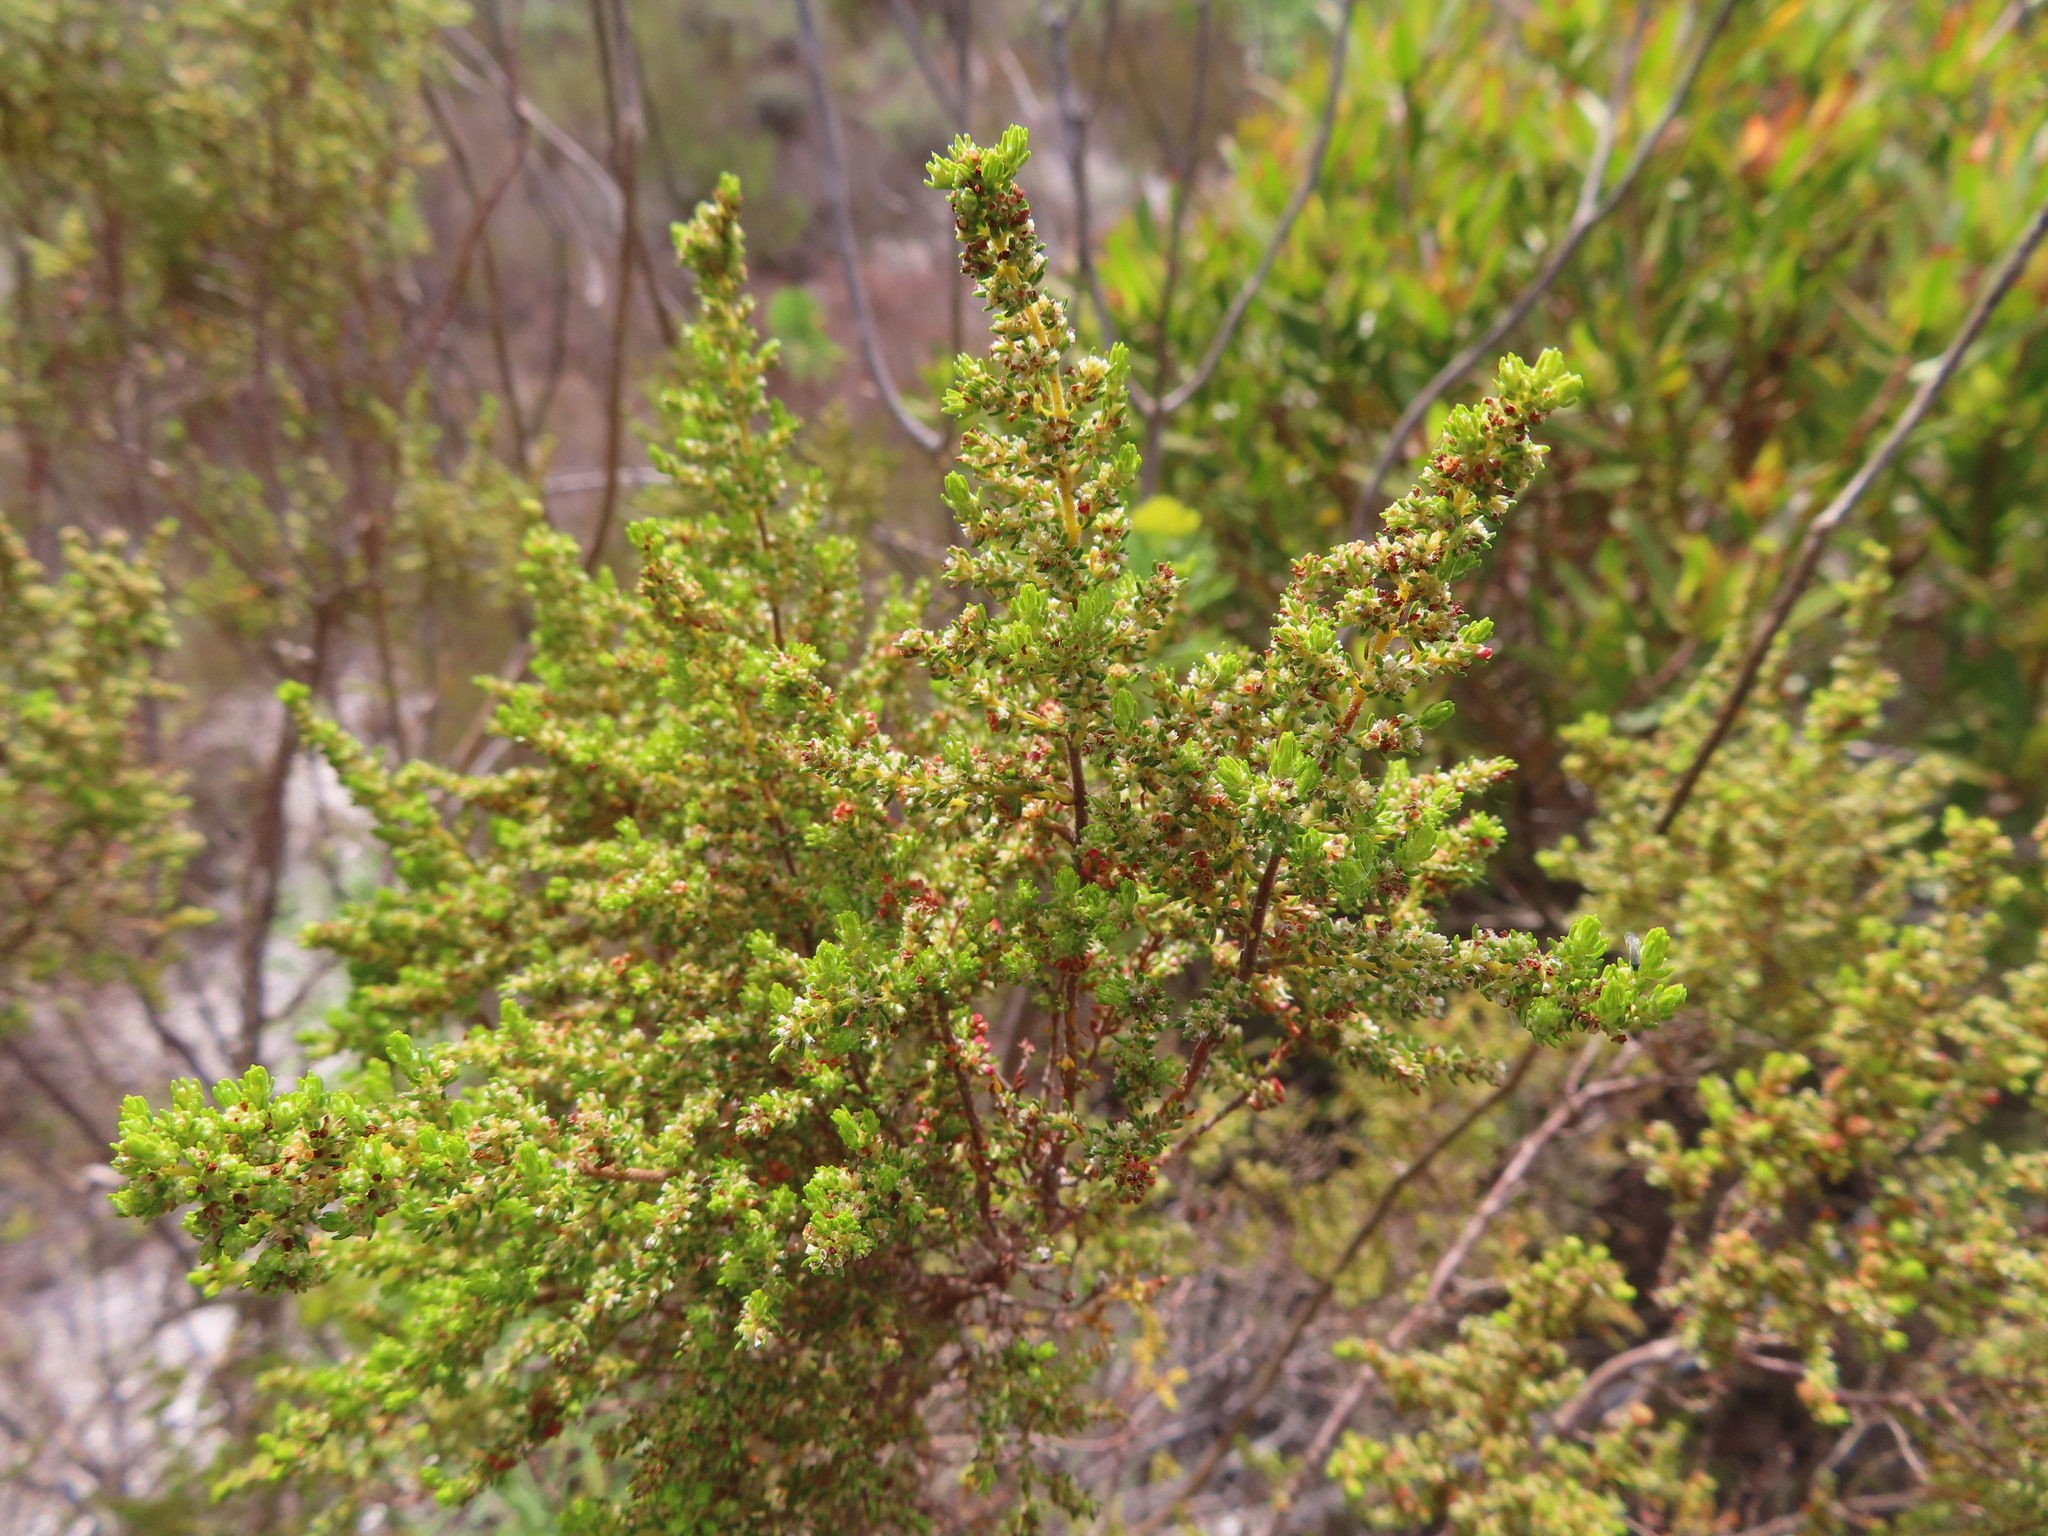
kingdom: Plantae
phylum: Tracheophyta
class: Magnoliopsida
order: Ericales
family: Ericaceae
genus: Erica
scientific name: Erica muscosa
